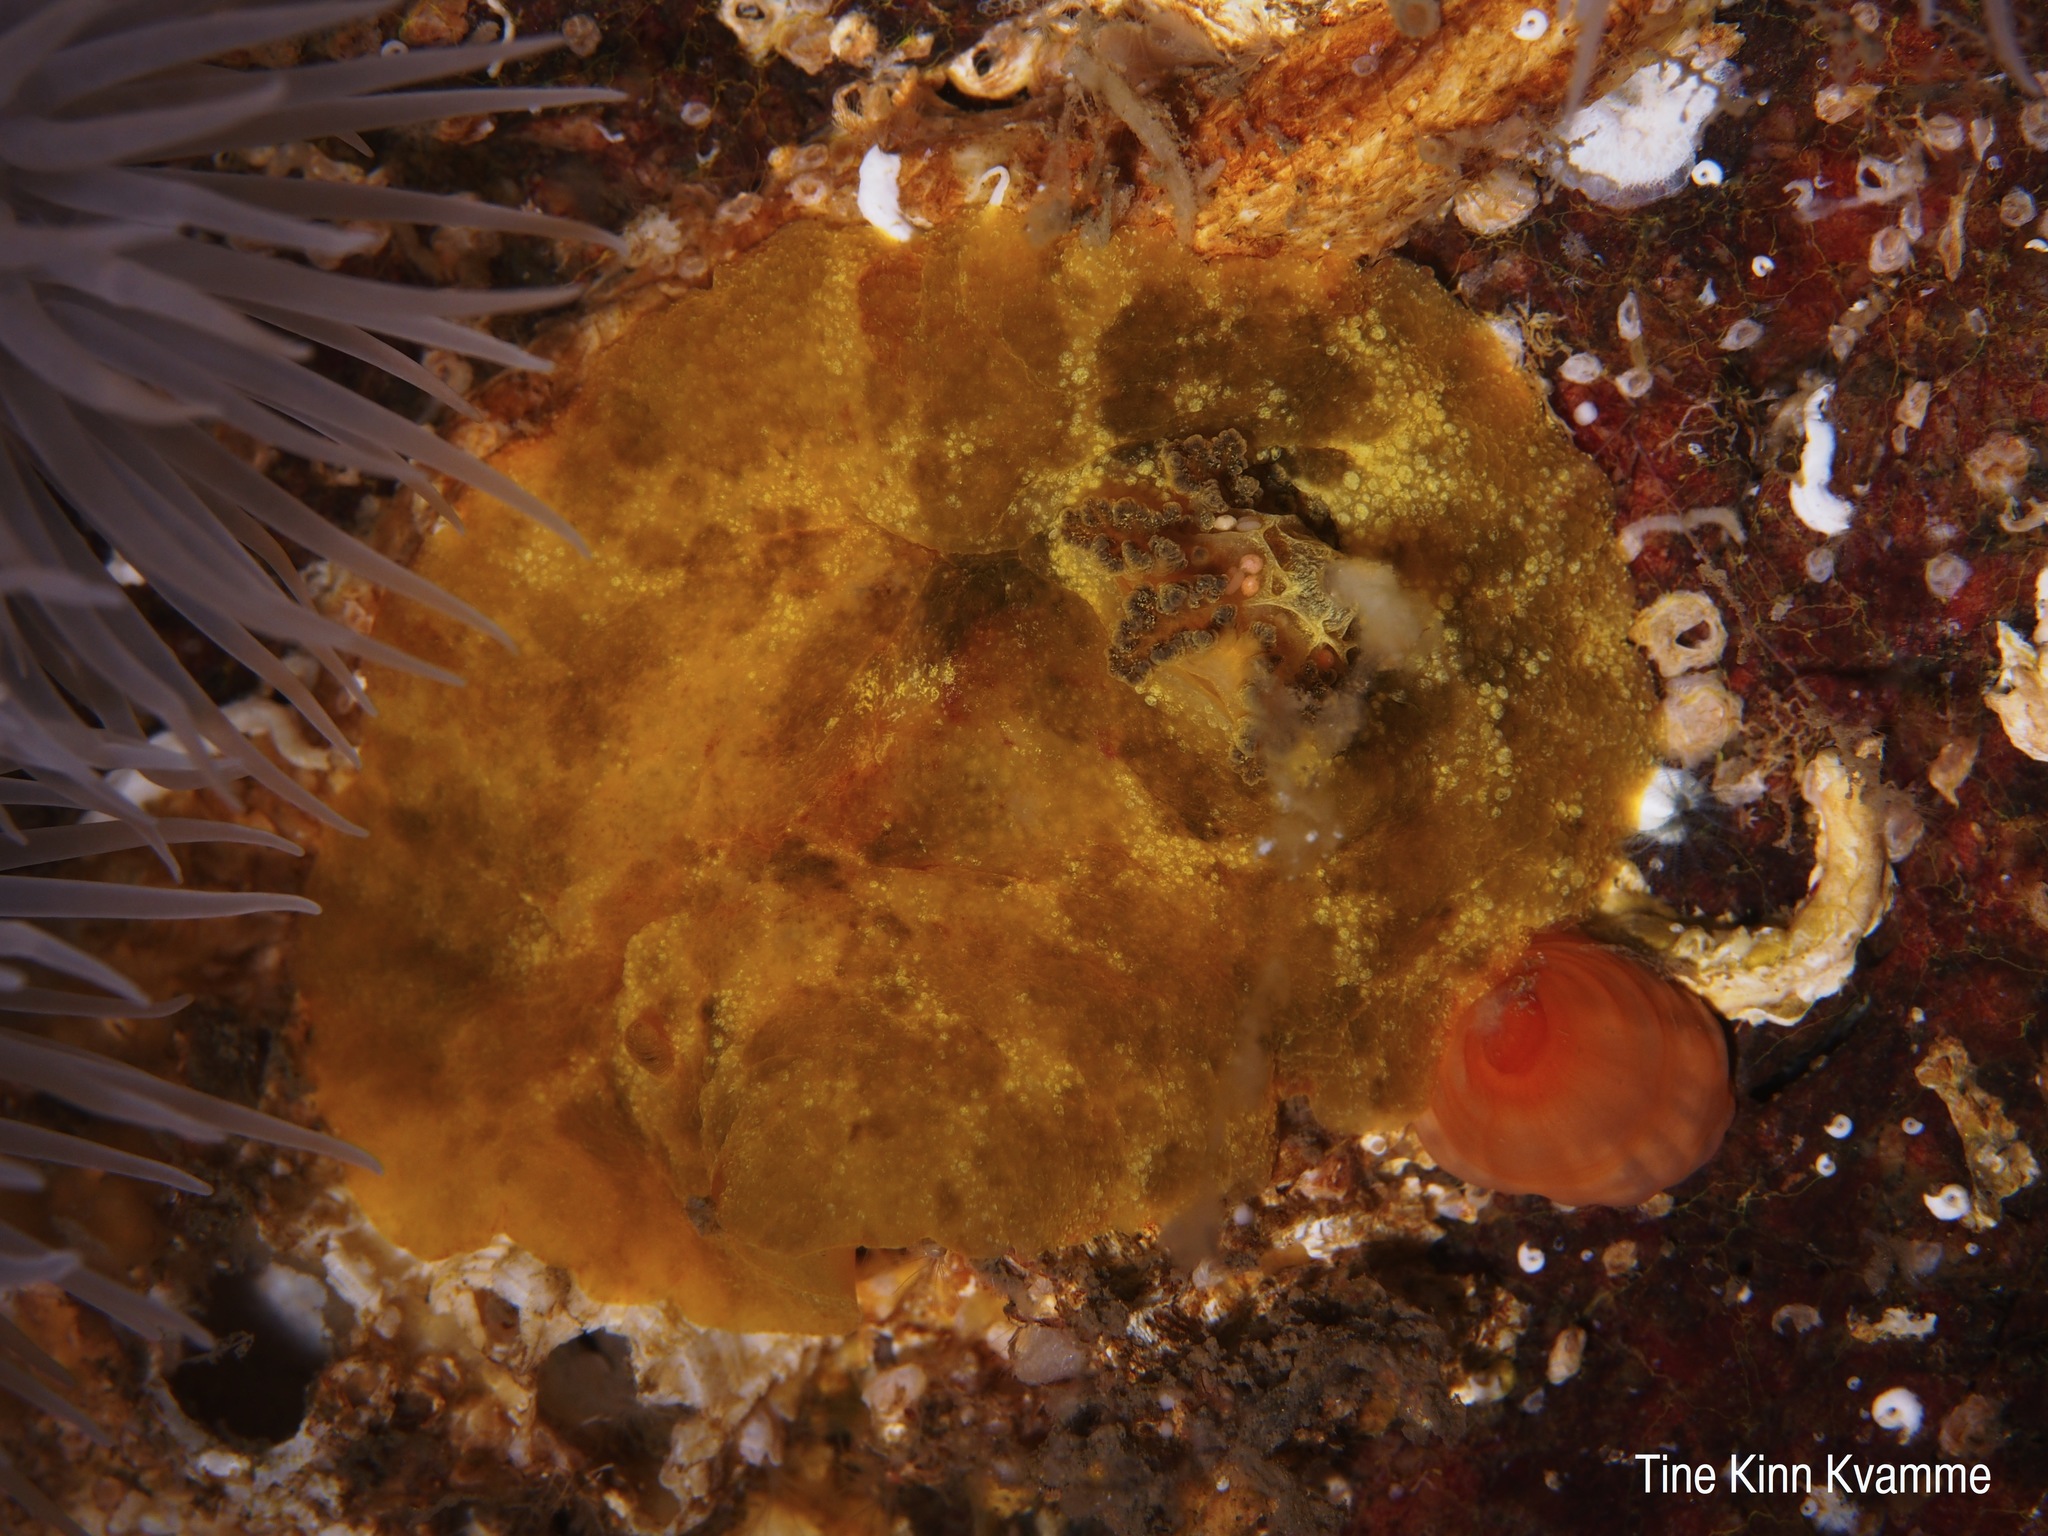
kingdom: Animalia
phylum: Mollusca
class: Gastropoda
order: Nudibranchia
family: Dorididae
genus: Doris
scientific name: Doris pseudoargus
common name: Sea lemon
